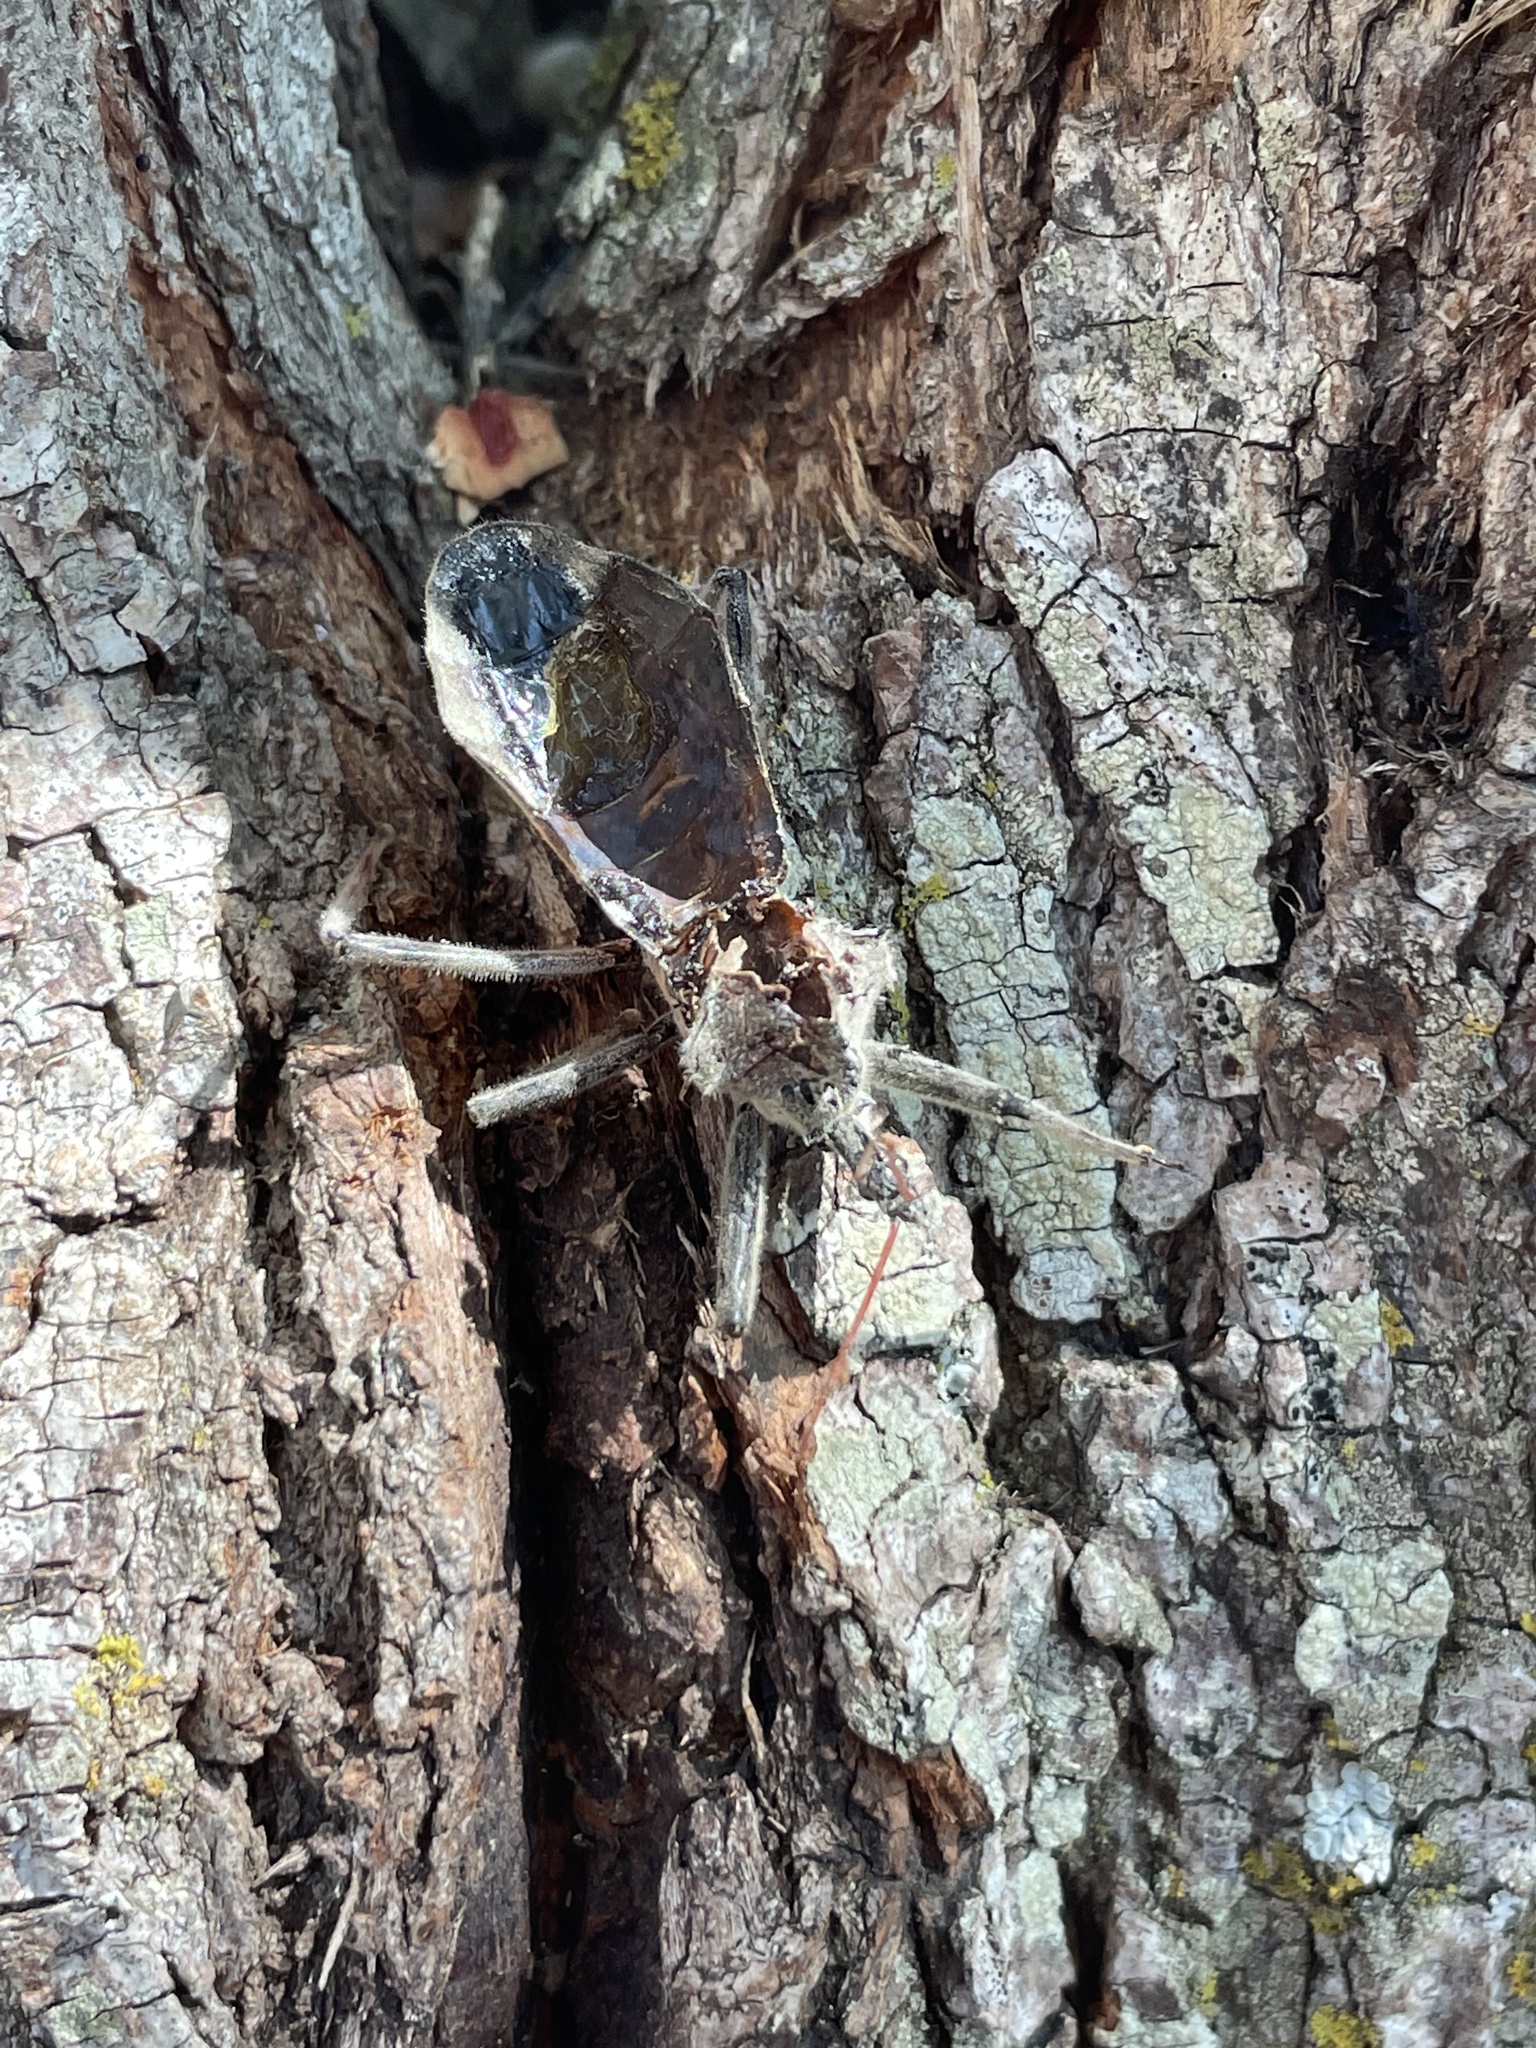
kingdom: Animalia
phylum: Arthropoda
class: Insecta
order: Hemiptera
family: Reduviidae
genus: Arilus
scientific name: Arilus cristatus
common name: North american wheel bug
